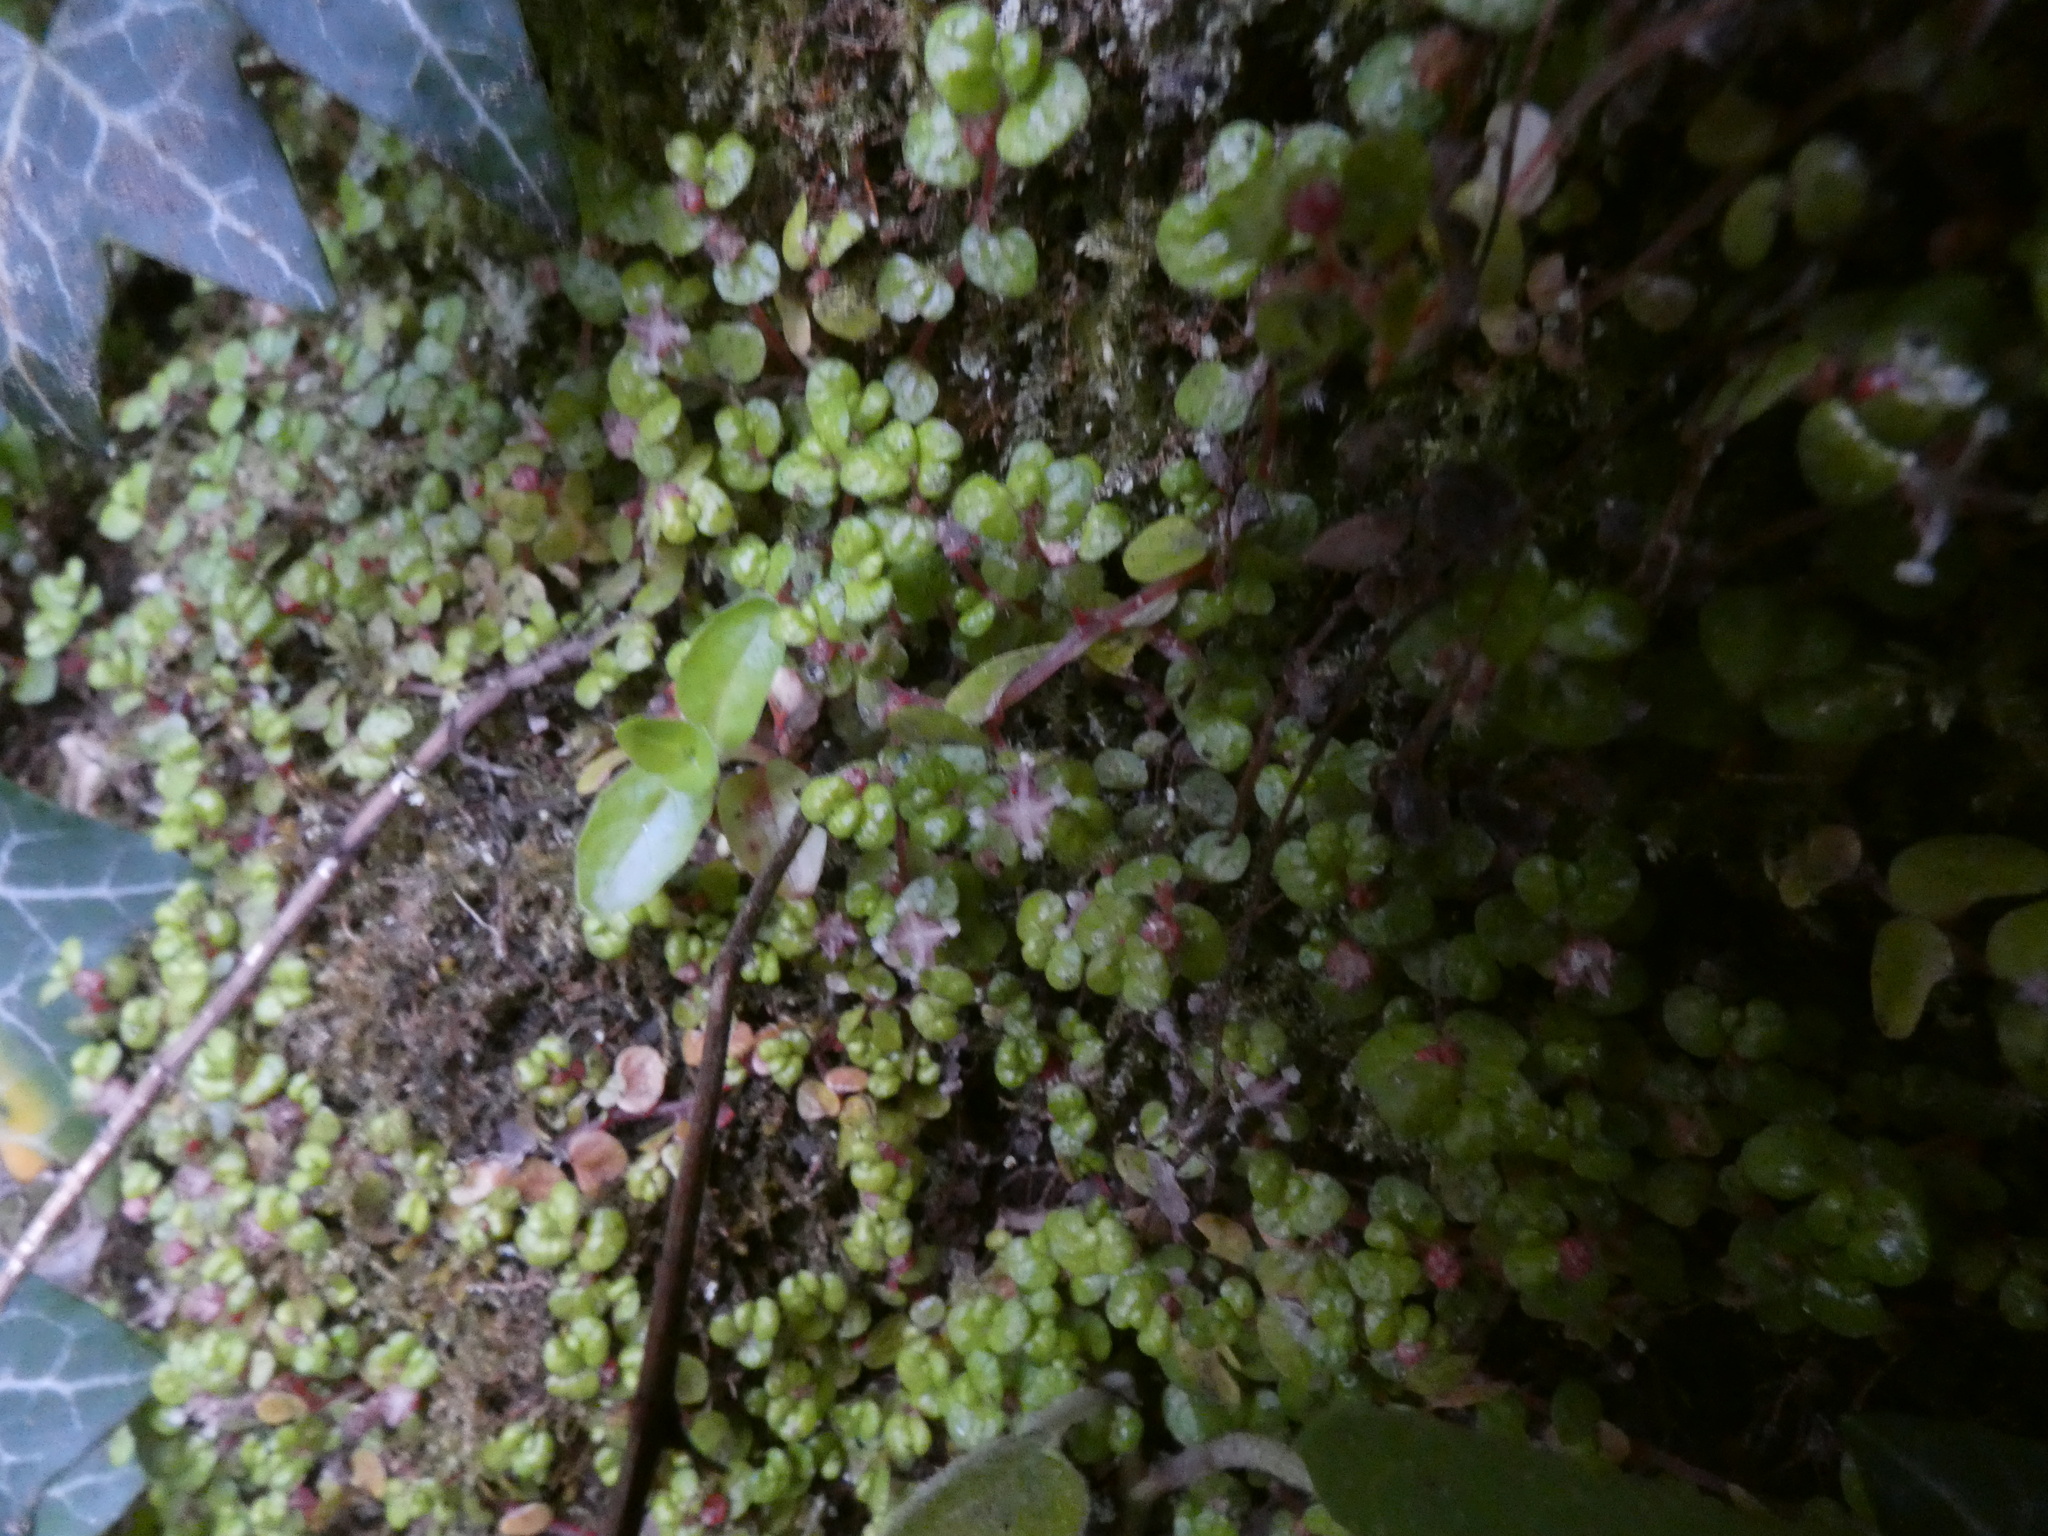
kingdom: Plantae
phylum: Tracheophyta
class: Magnoliopsida
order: Rosales
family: Urticaceae
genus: Soleirolia
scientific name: Soleirolia soleirolii
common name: Mind-your-own-business
